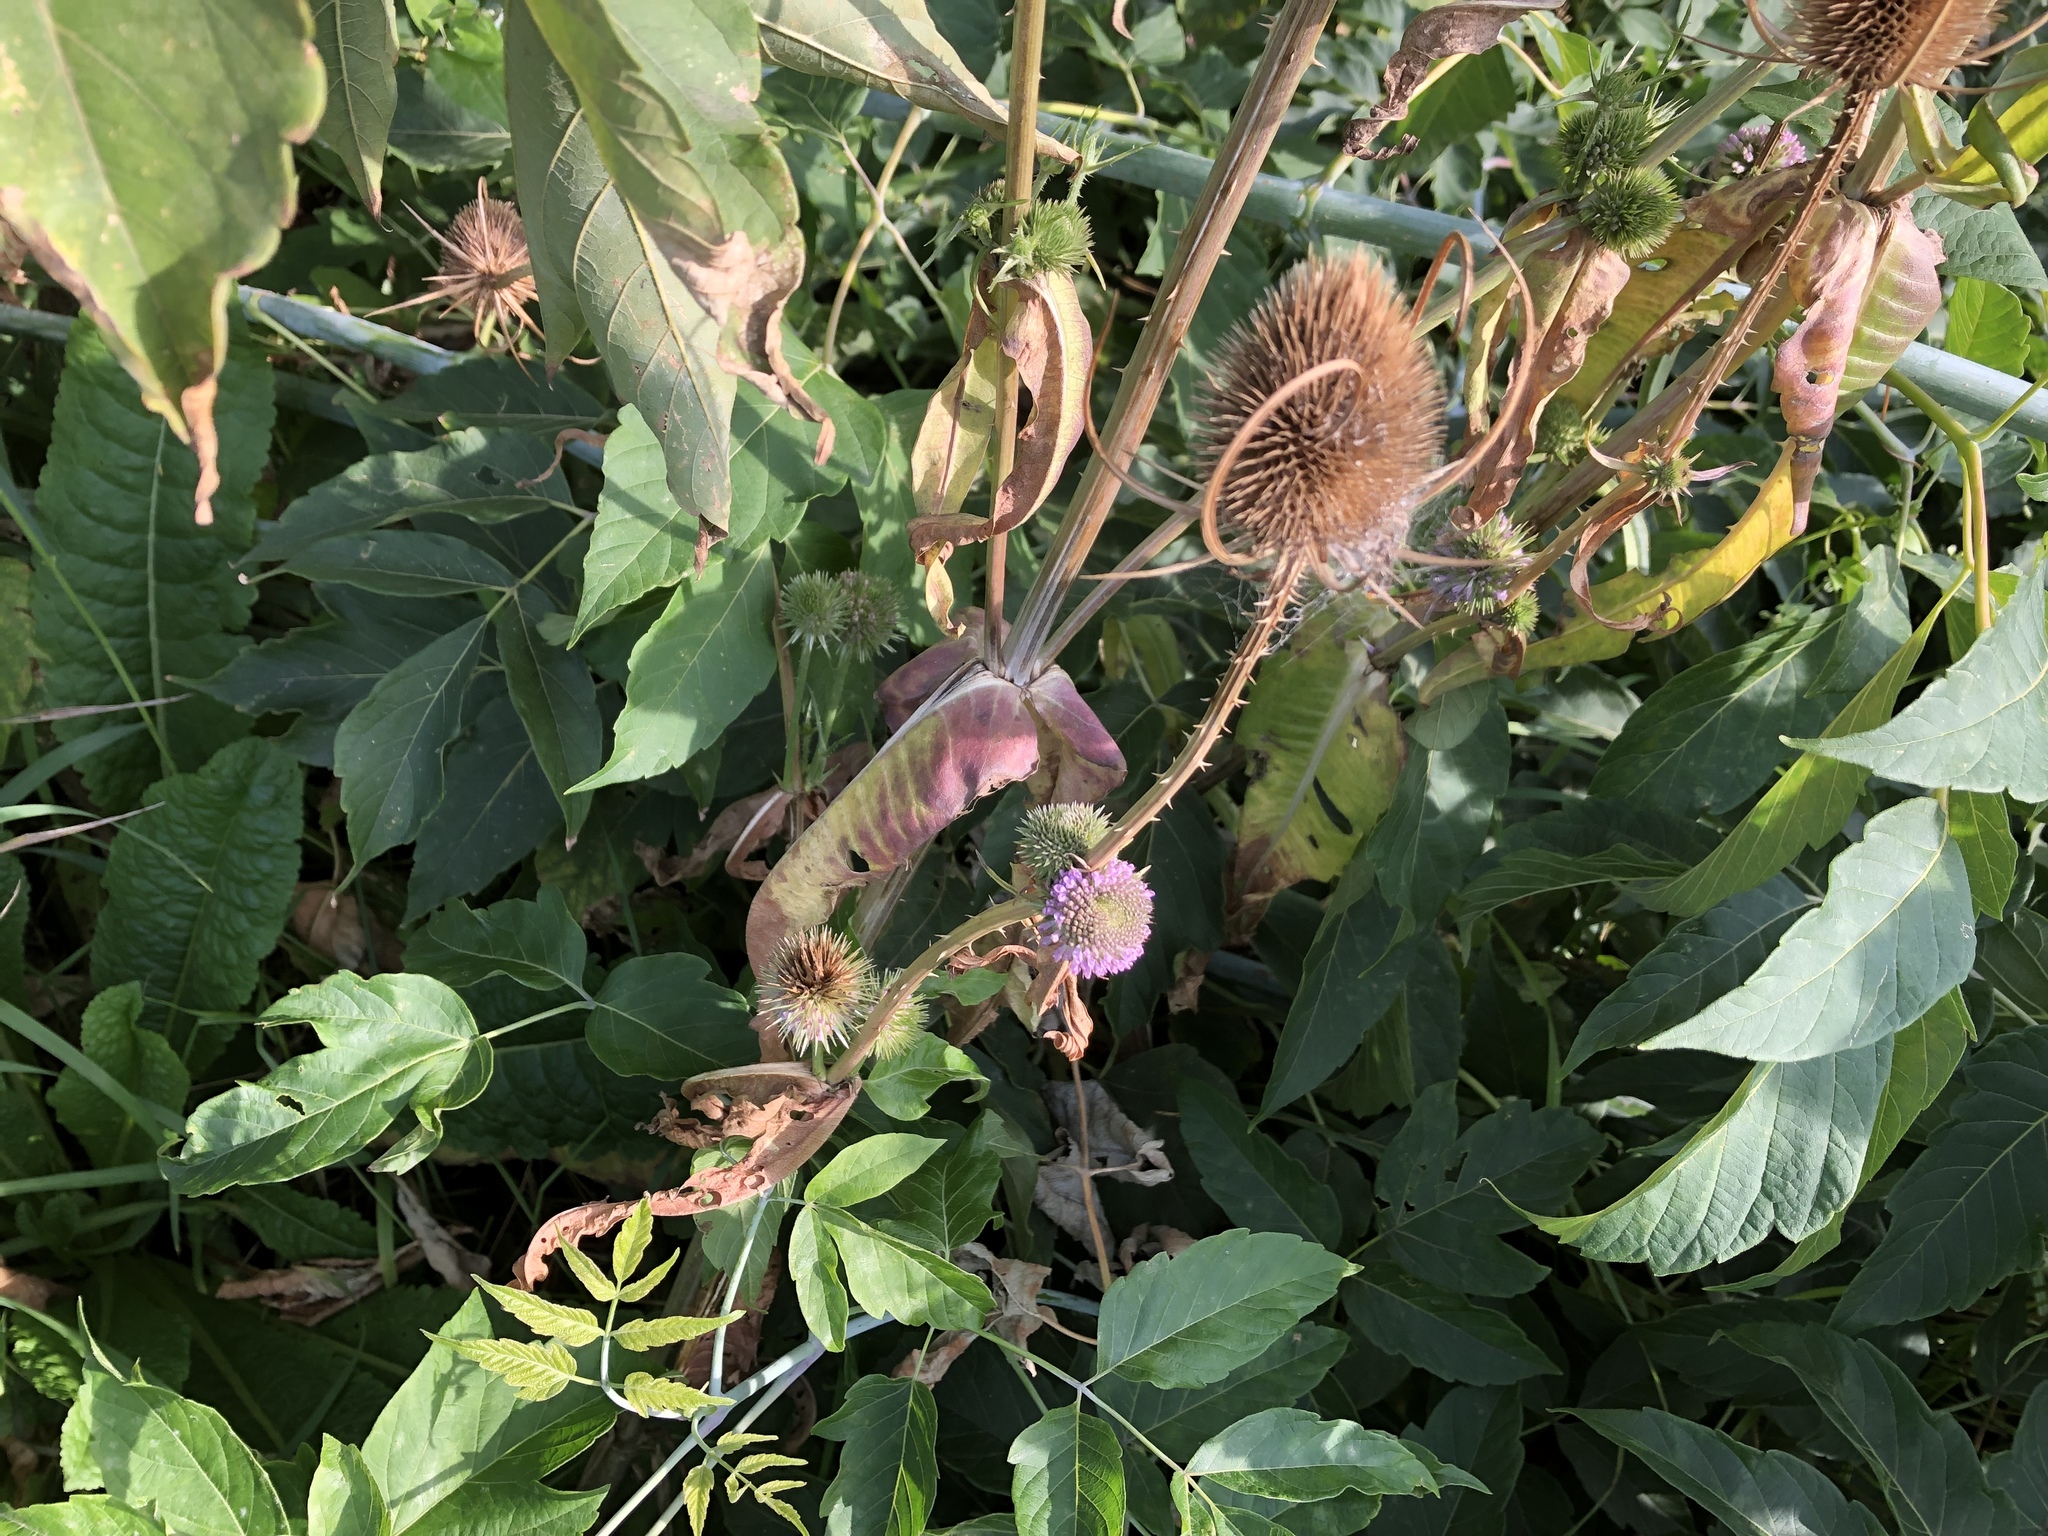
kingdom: Plantae
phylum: Tracheophyta
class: Magnoliopsida
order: Dipsacales
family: Caprifoliaceae
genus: Dipsacus
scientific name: Dipsacus fullonum
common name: Teasel
